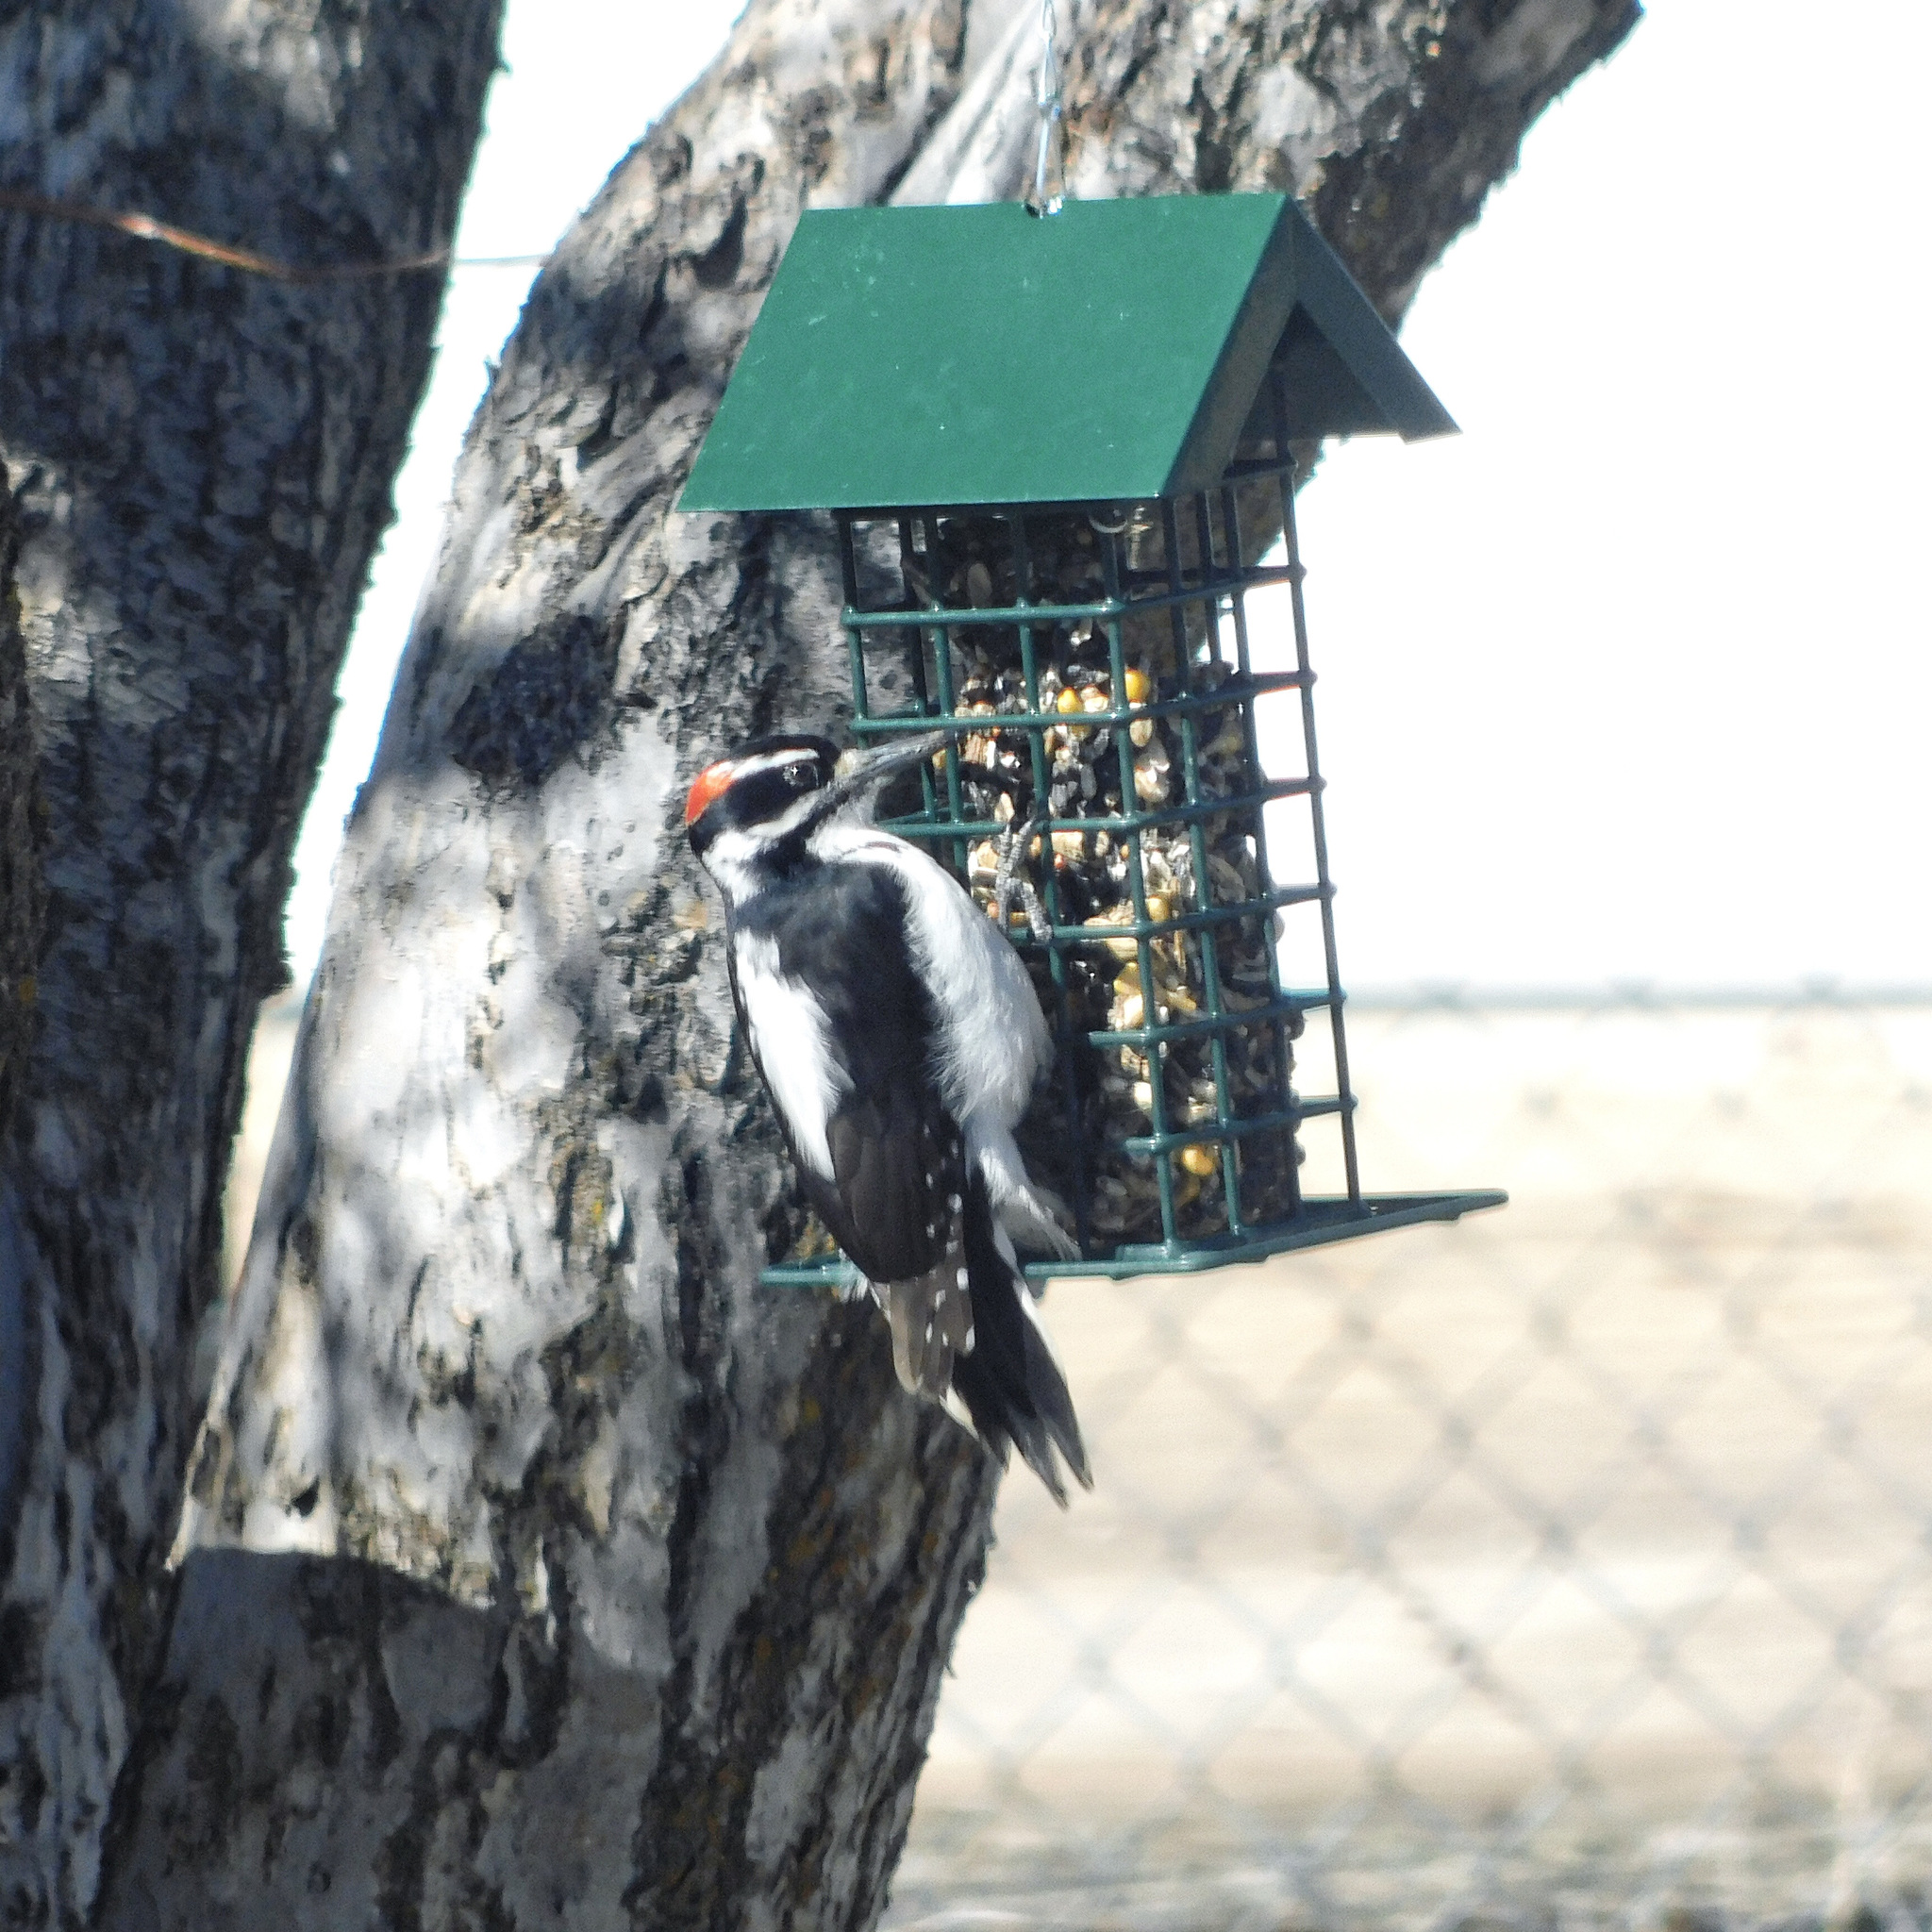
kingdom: Animalia
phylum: Chordata
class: Aves
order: Piciformes
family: Picidae
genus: Leuconotopicus
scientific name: Leuconotopicus villosus
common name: Hairy woodpecker
